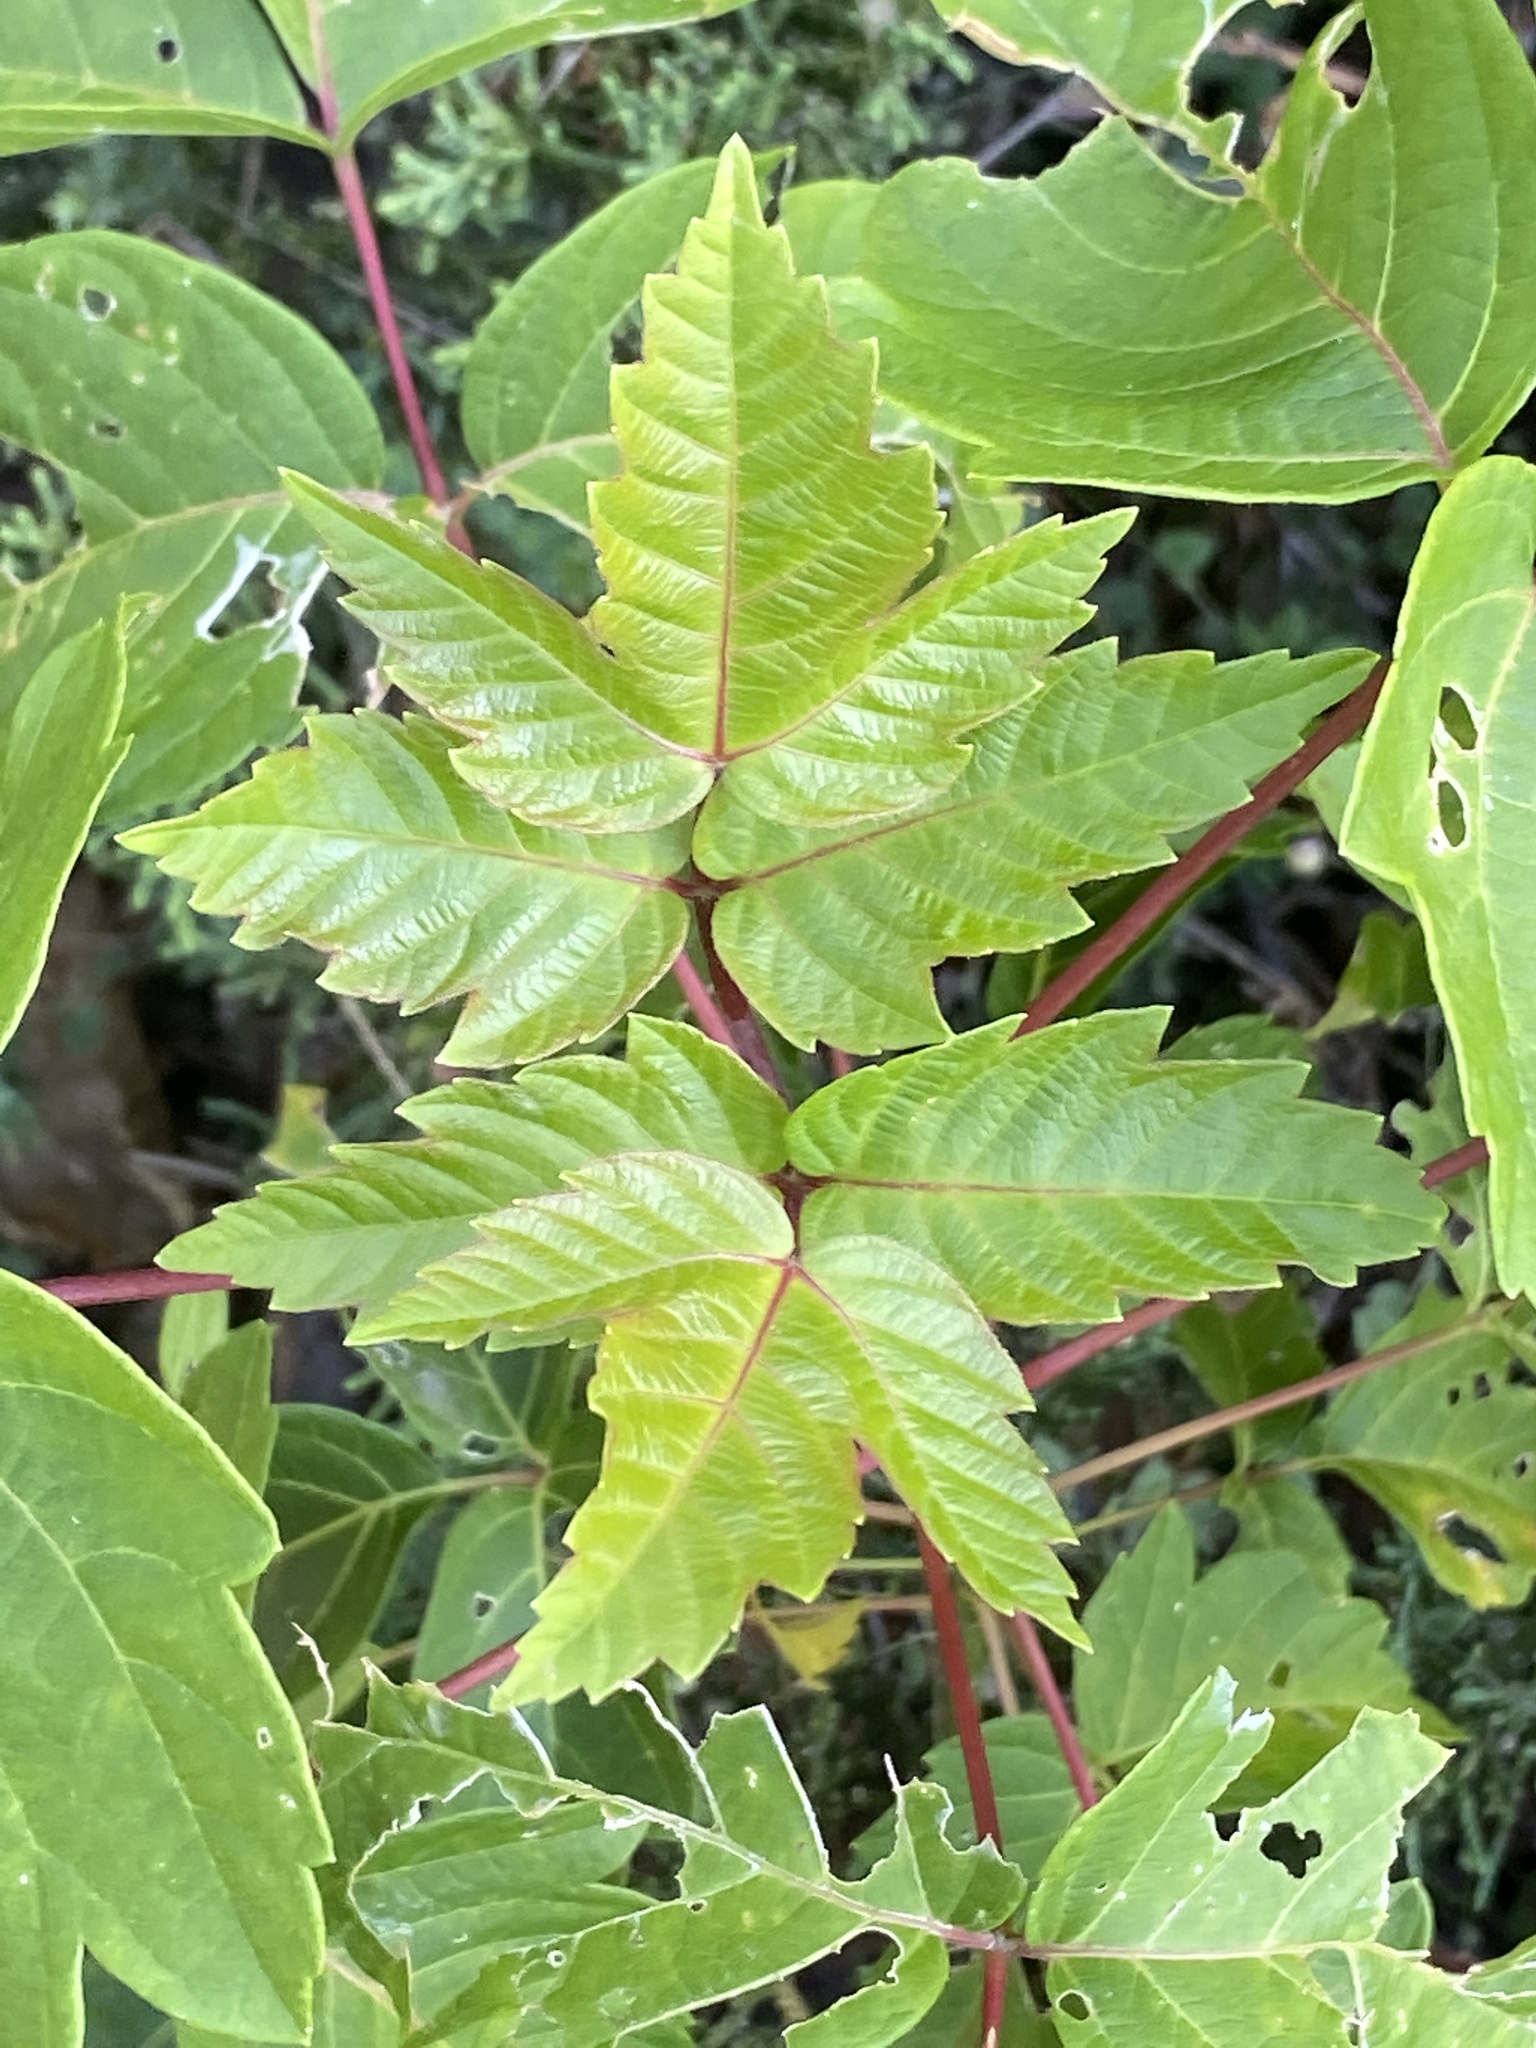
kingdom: Plantae
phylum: Tracheophyta
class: Magnoliopsida
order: Sapindales
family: Sapindaceae
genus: Acer
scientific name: Acer negundo
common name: Ashleaf maple
